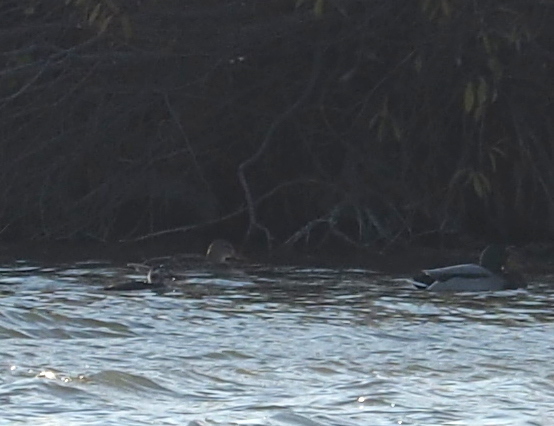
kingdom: Animalia
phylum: Chordata
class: Aves
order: Anseriformes
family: Anatidae
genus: Clangula
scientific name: Clangula hyemalis
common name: Long-tailed duck
